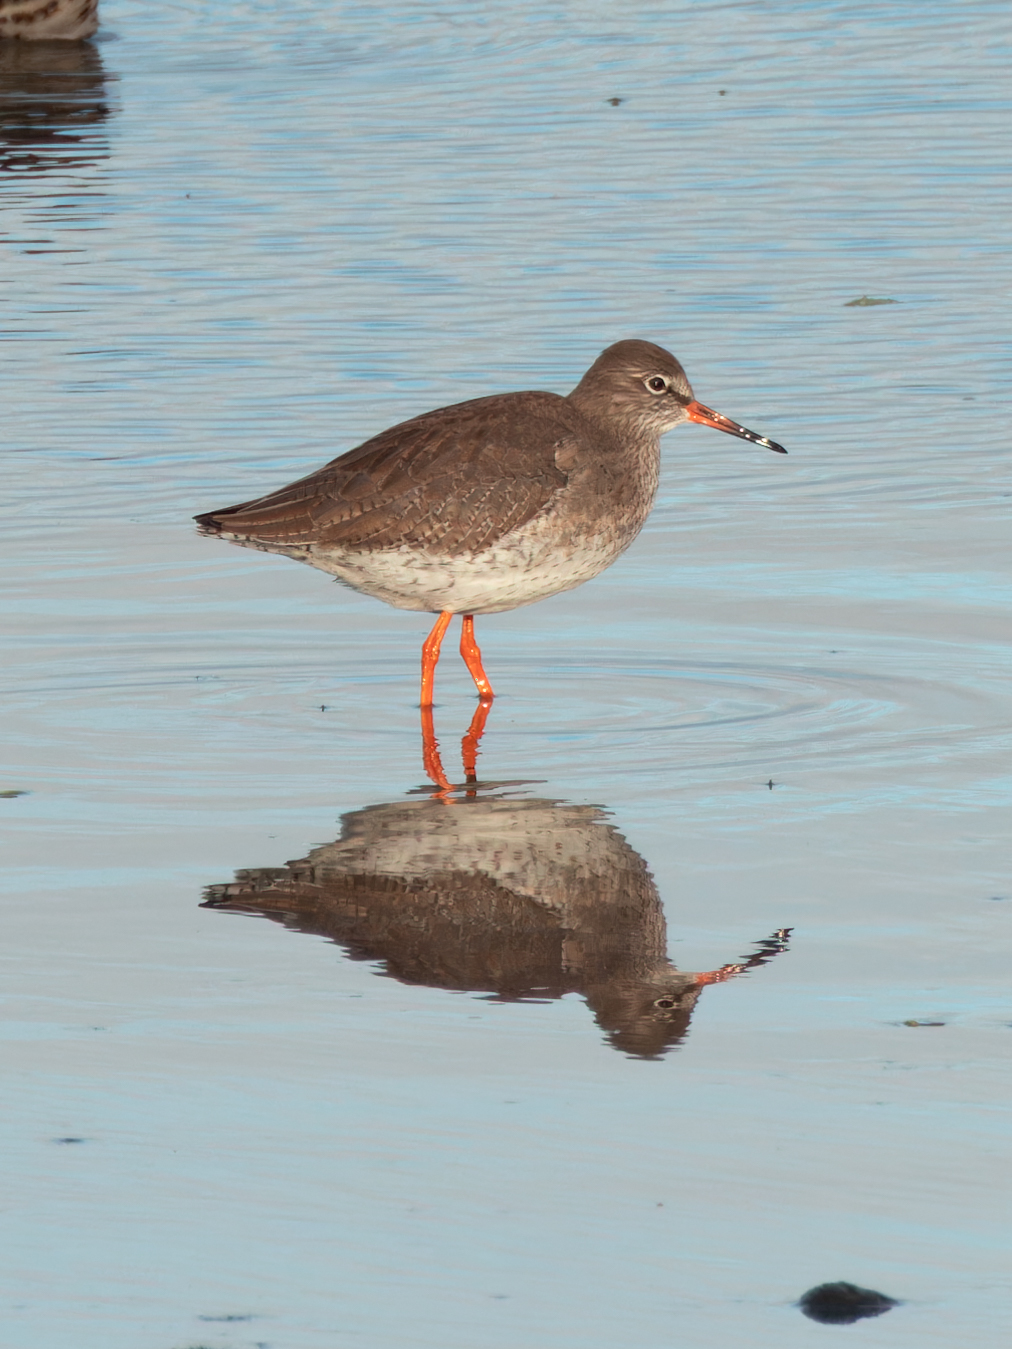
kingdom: Animalia
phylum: Chordata
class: Aves
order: Charadriiformes
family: Scolopacidae
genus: Tringa
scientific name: Tringa totanus
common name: Common redshank
